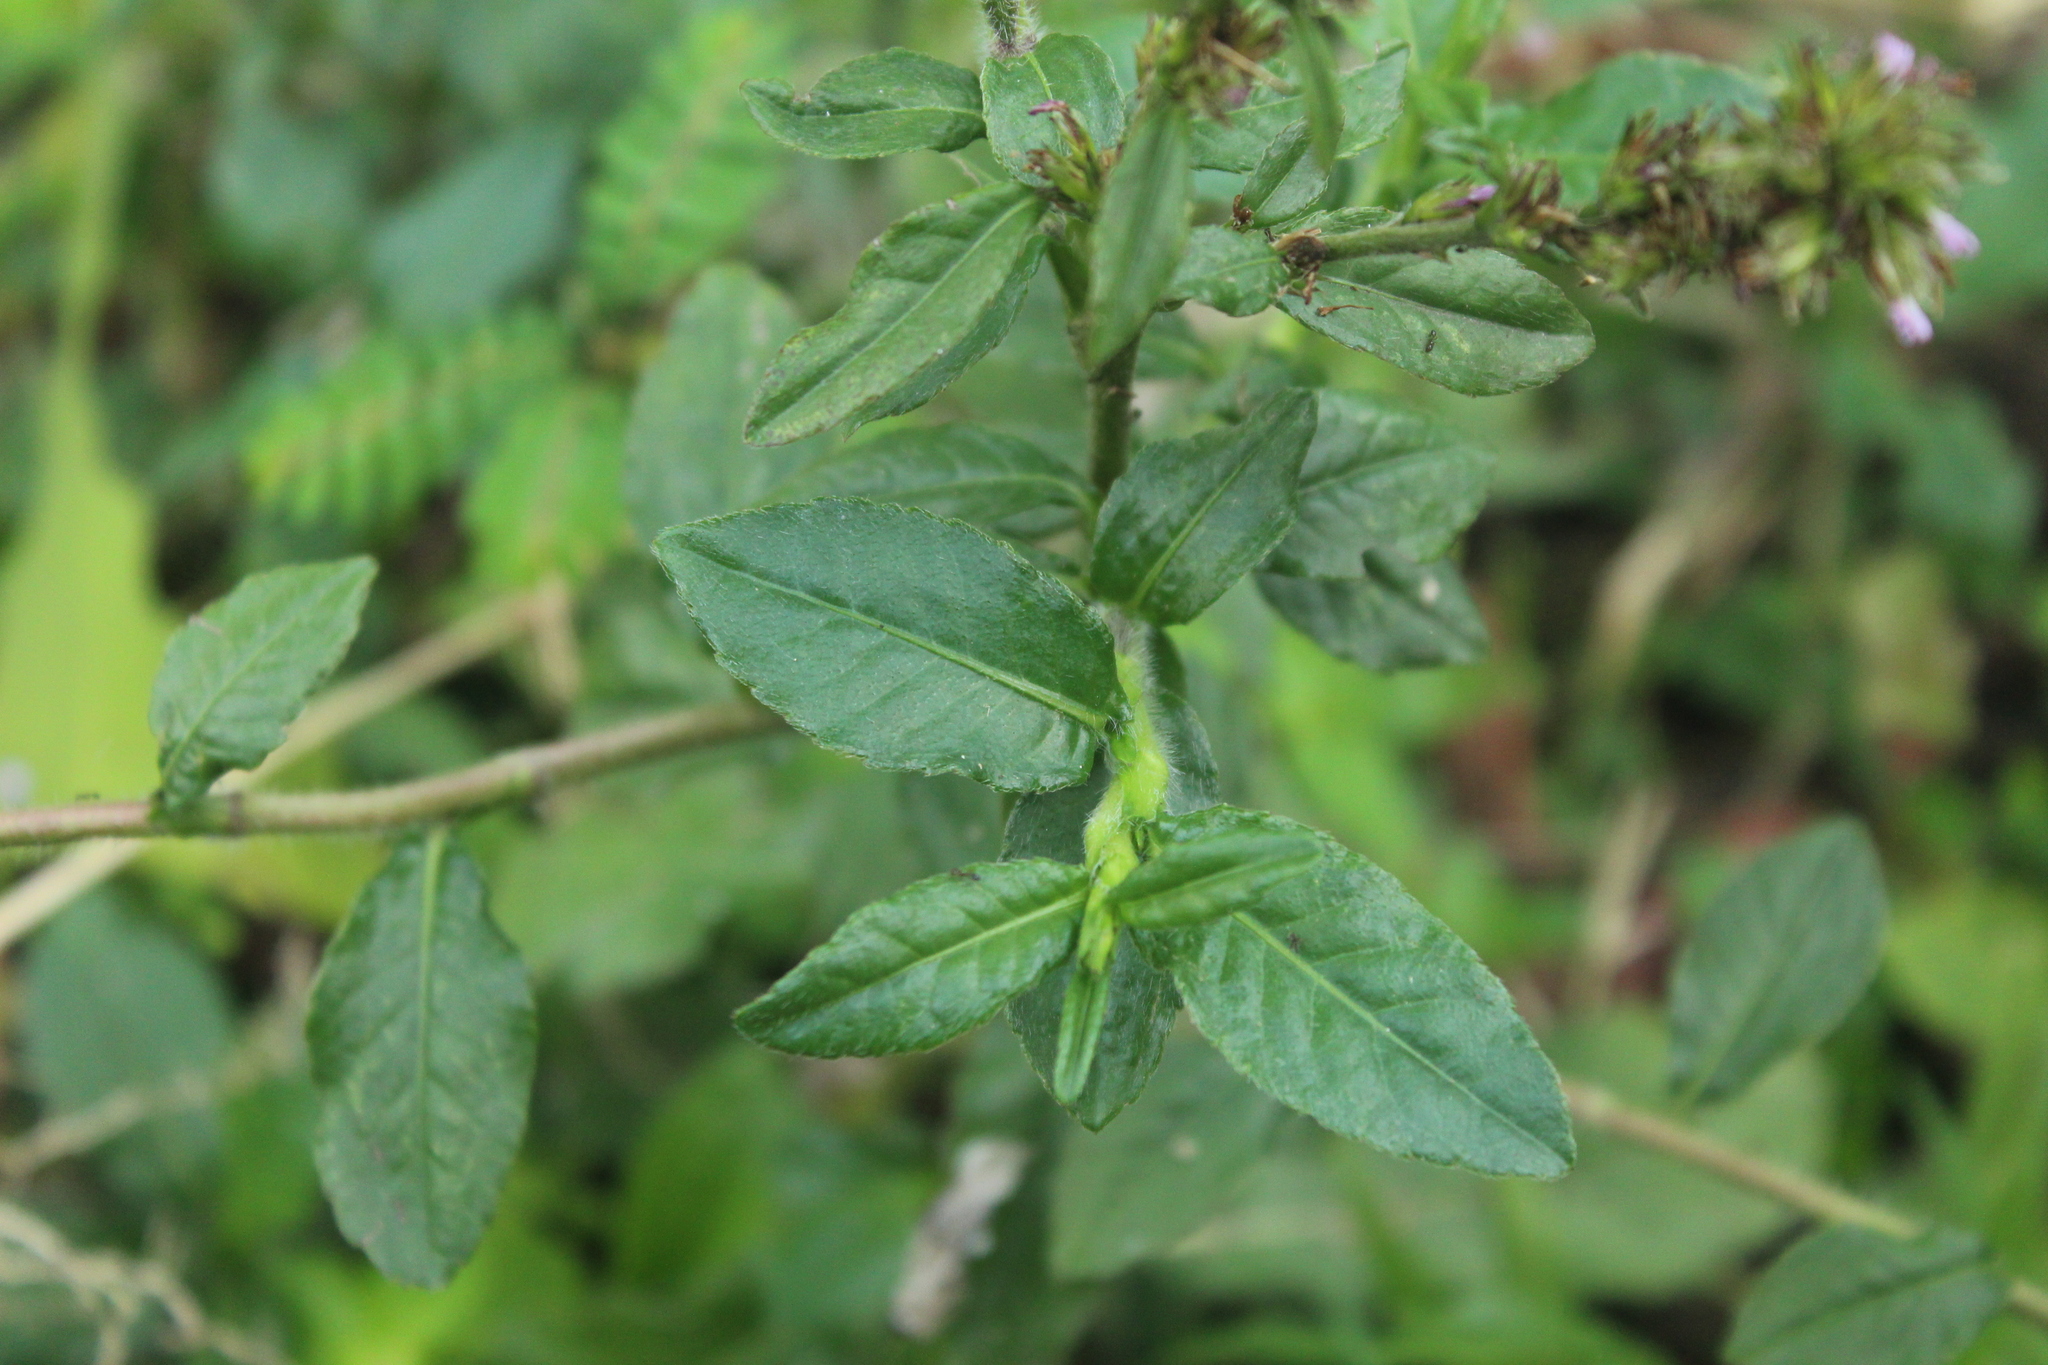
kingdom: Plantae
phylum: Tracheophyta
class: Magnoliopsida
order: Asterales
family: Asteraceae
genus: Pseudelephantopus
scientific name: Pseudelephantopus spiralis
